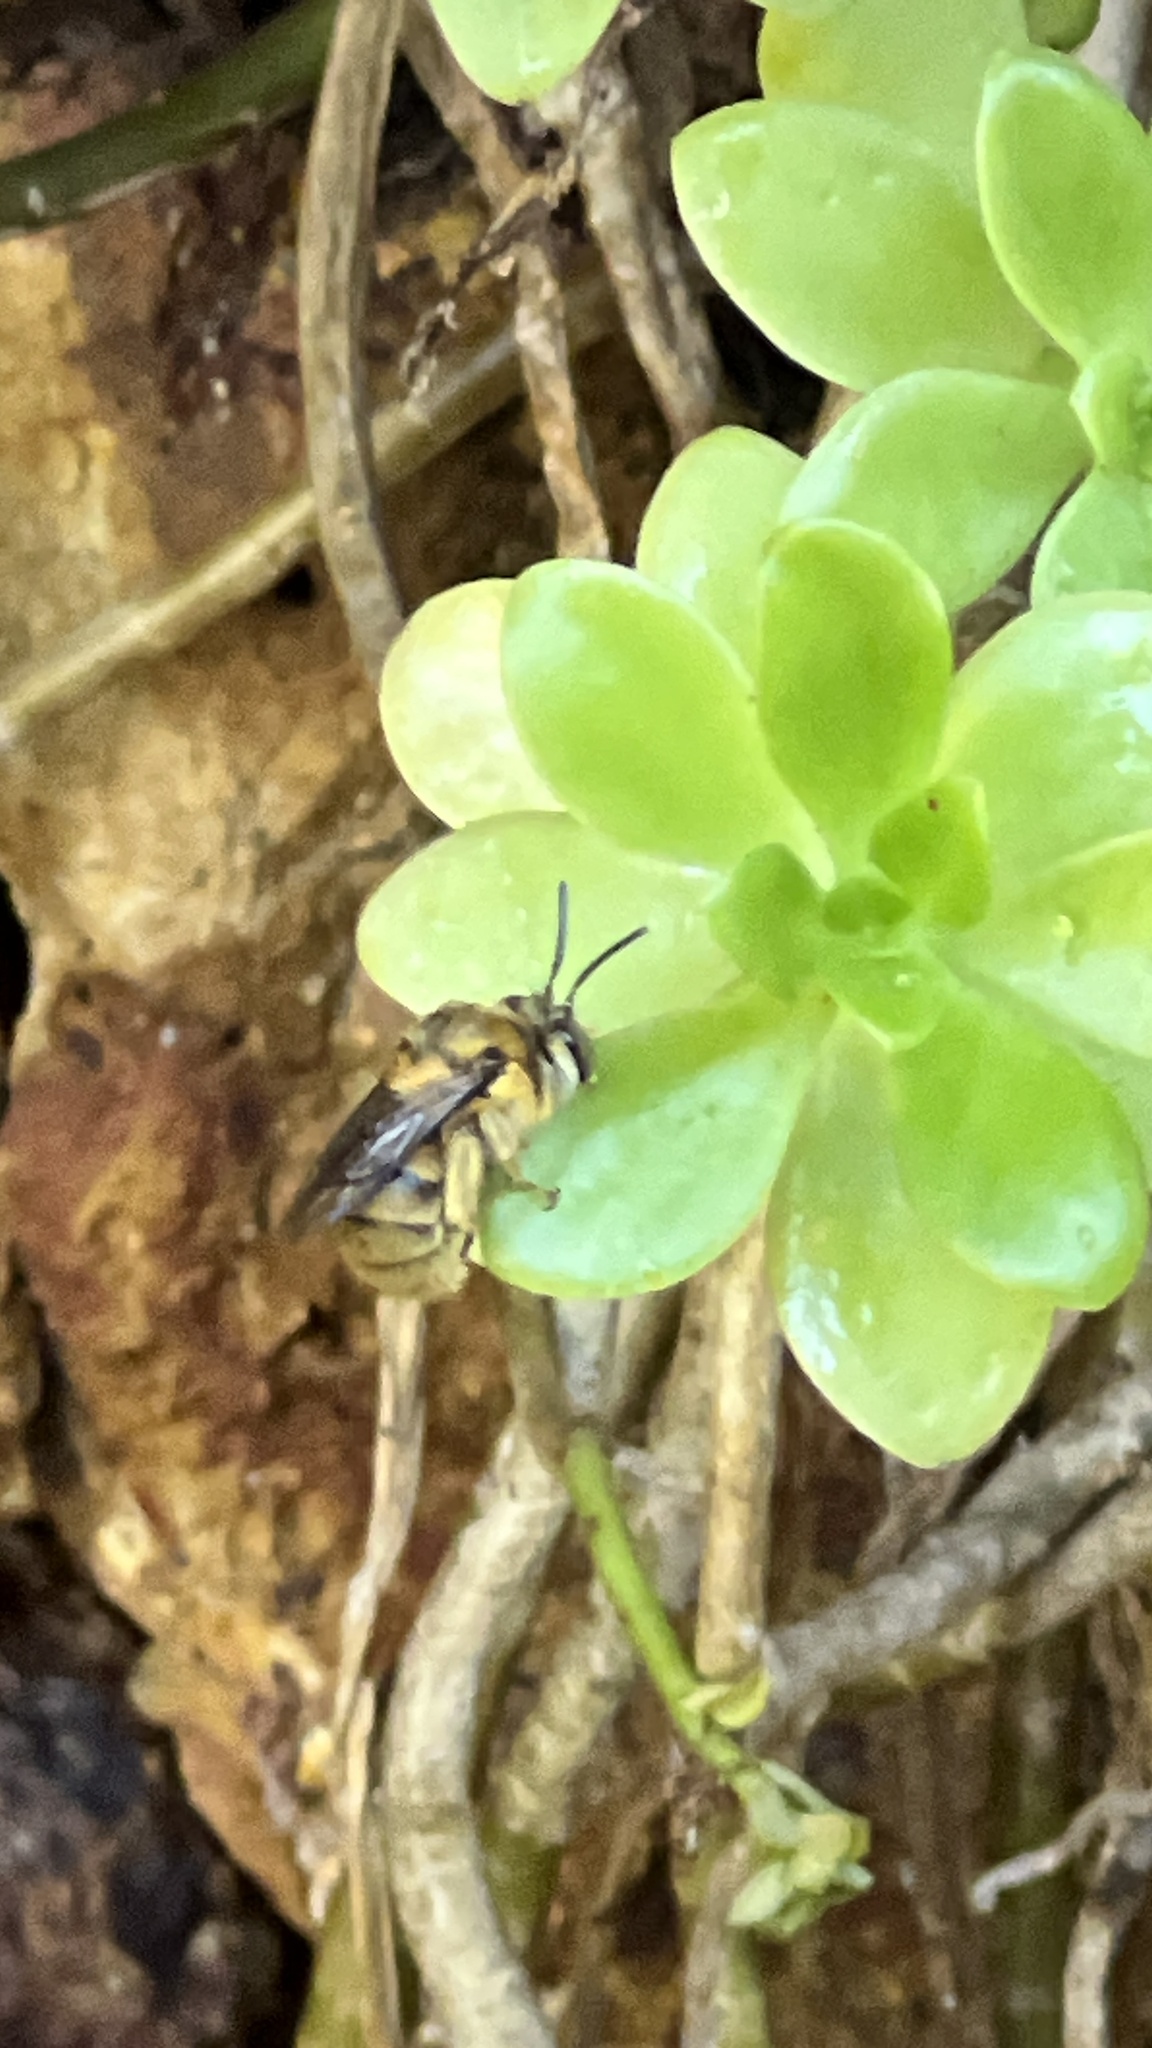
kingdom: Animalia
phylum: Arthropoda
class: Insecta
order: Hymenoptera
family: Apidae
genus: Amegilla
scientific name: Amegilla preissi
